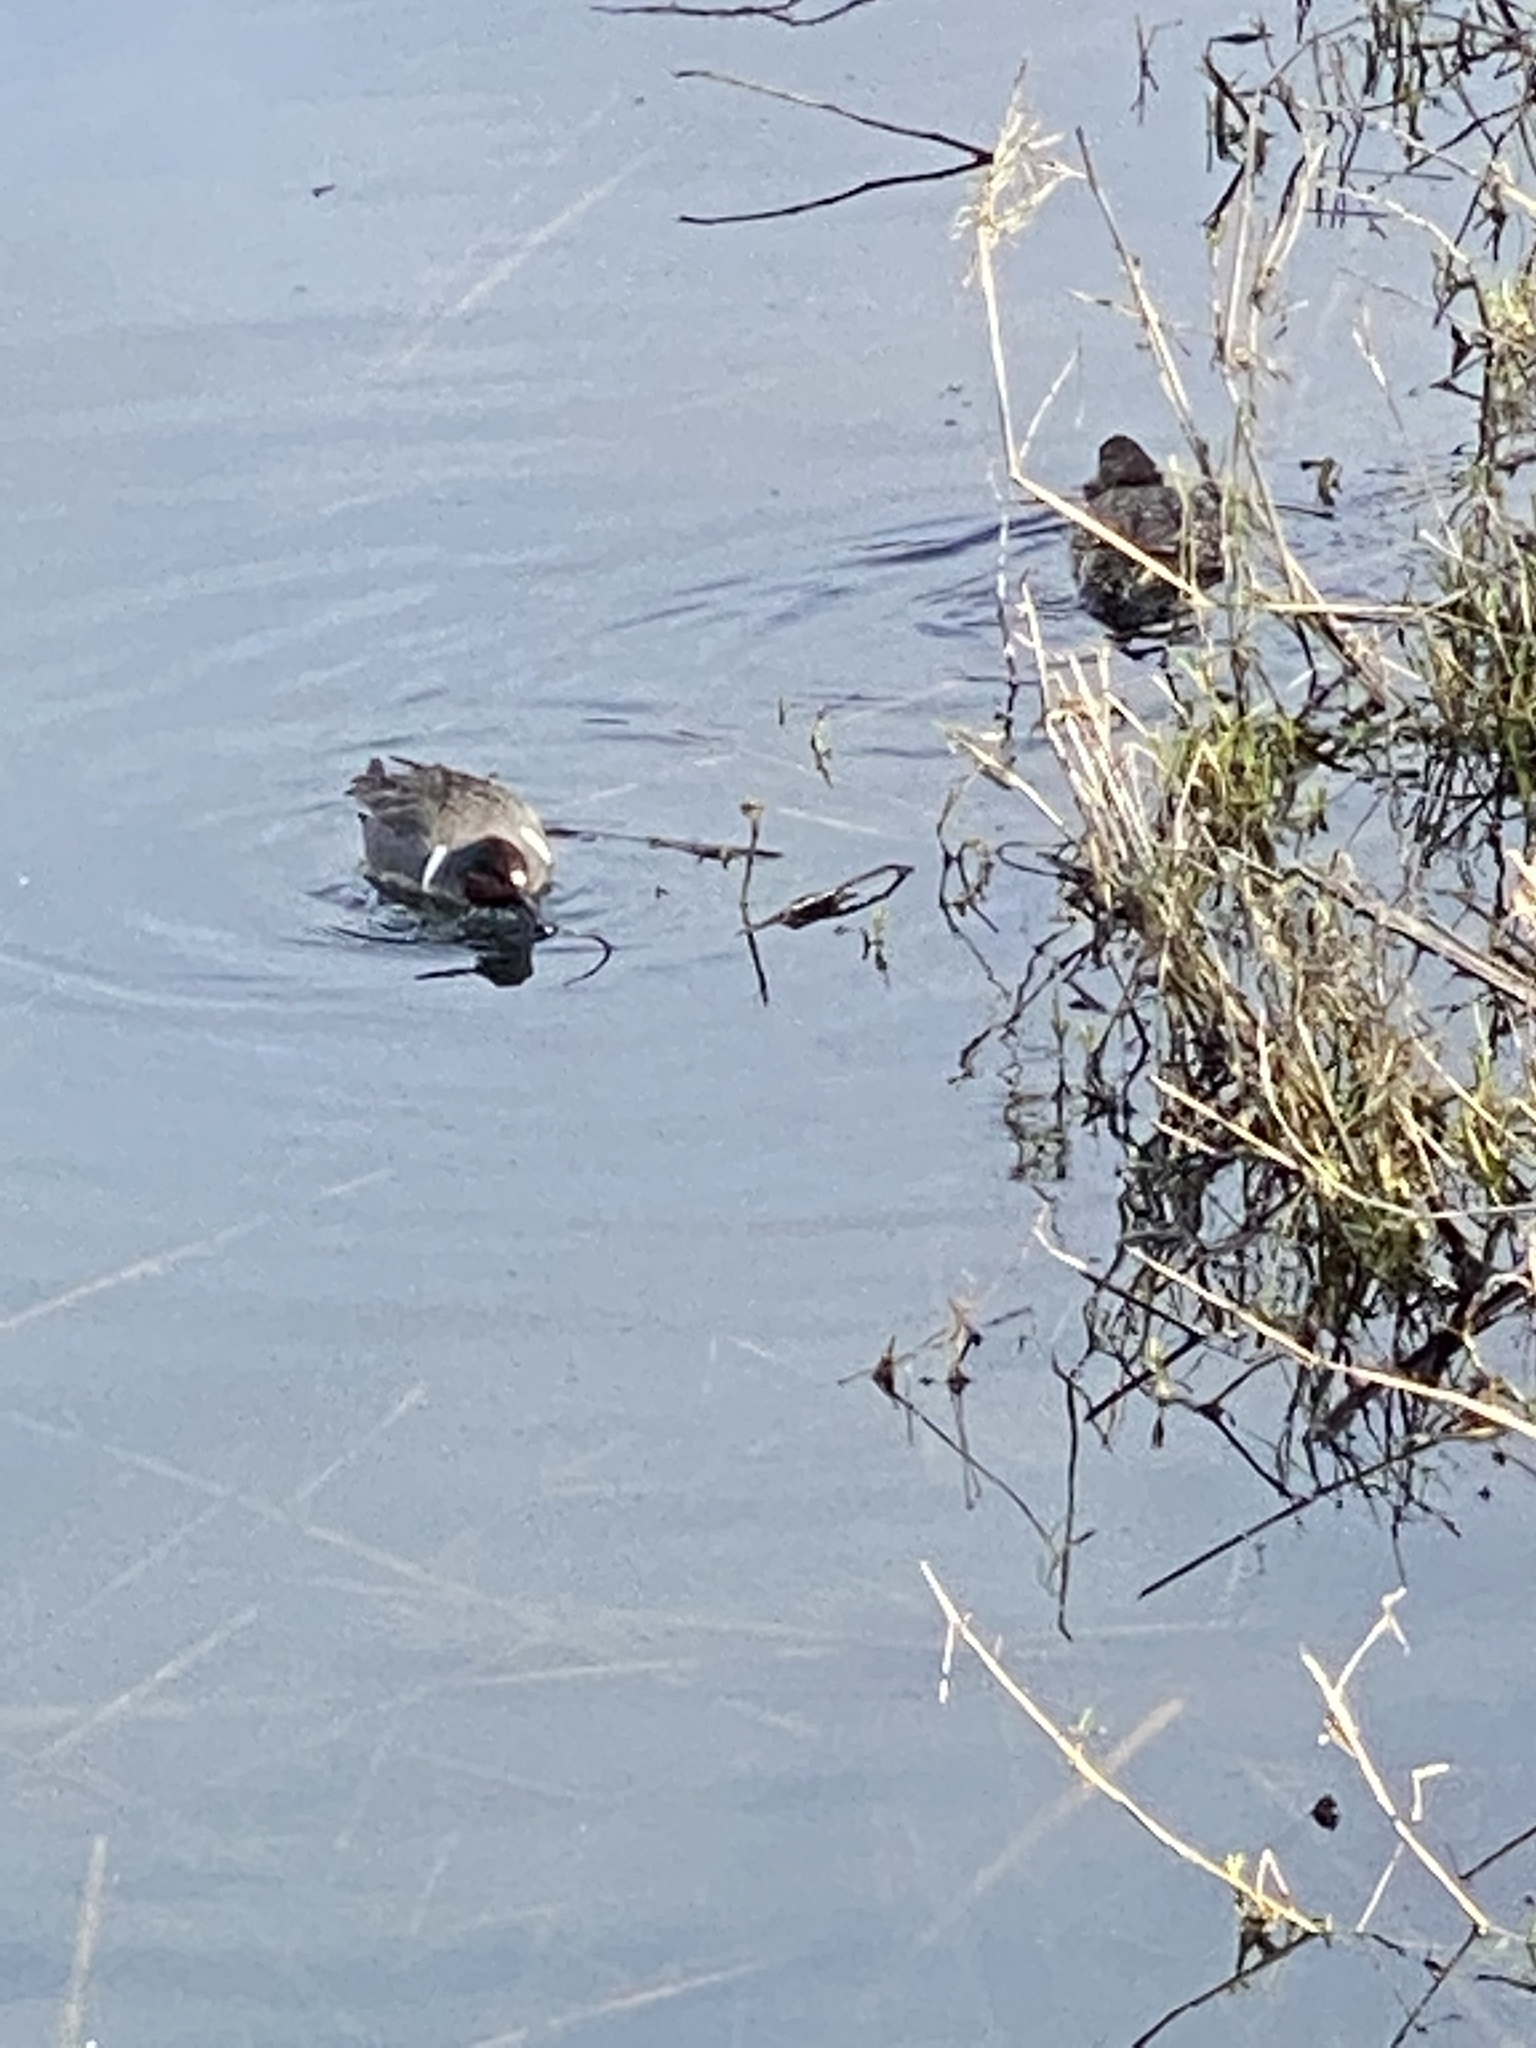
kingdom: Animalia
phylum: Chordata
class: Aves
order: Anseriformes
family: Anatidae
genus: Anas
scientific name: Anas crecca
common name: Eurasian teal
